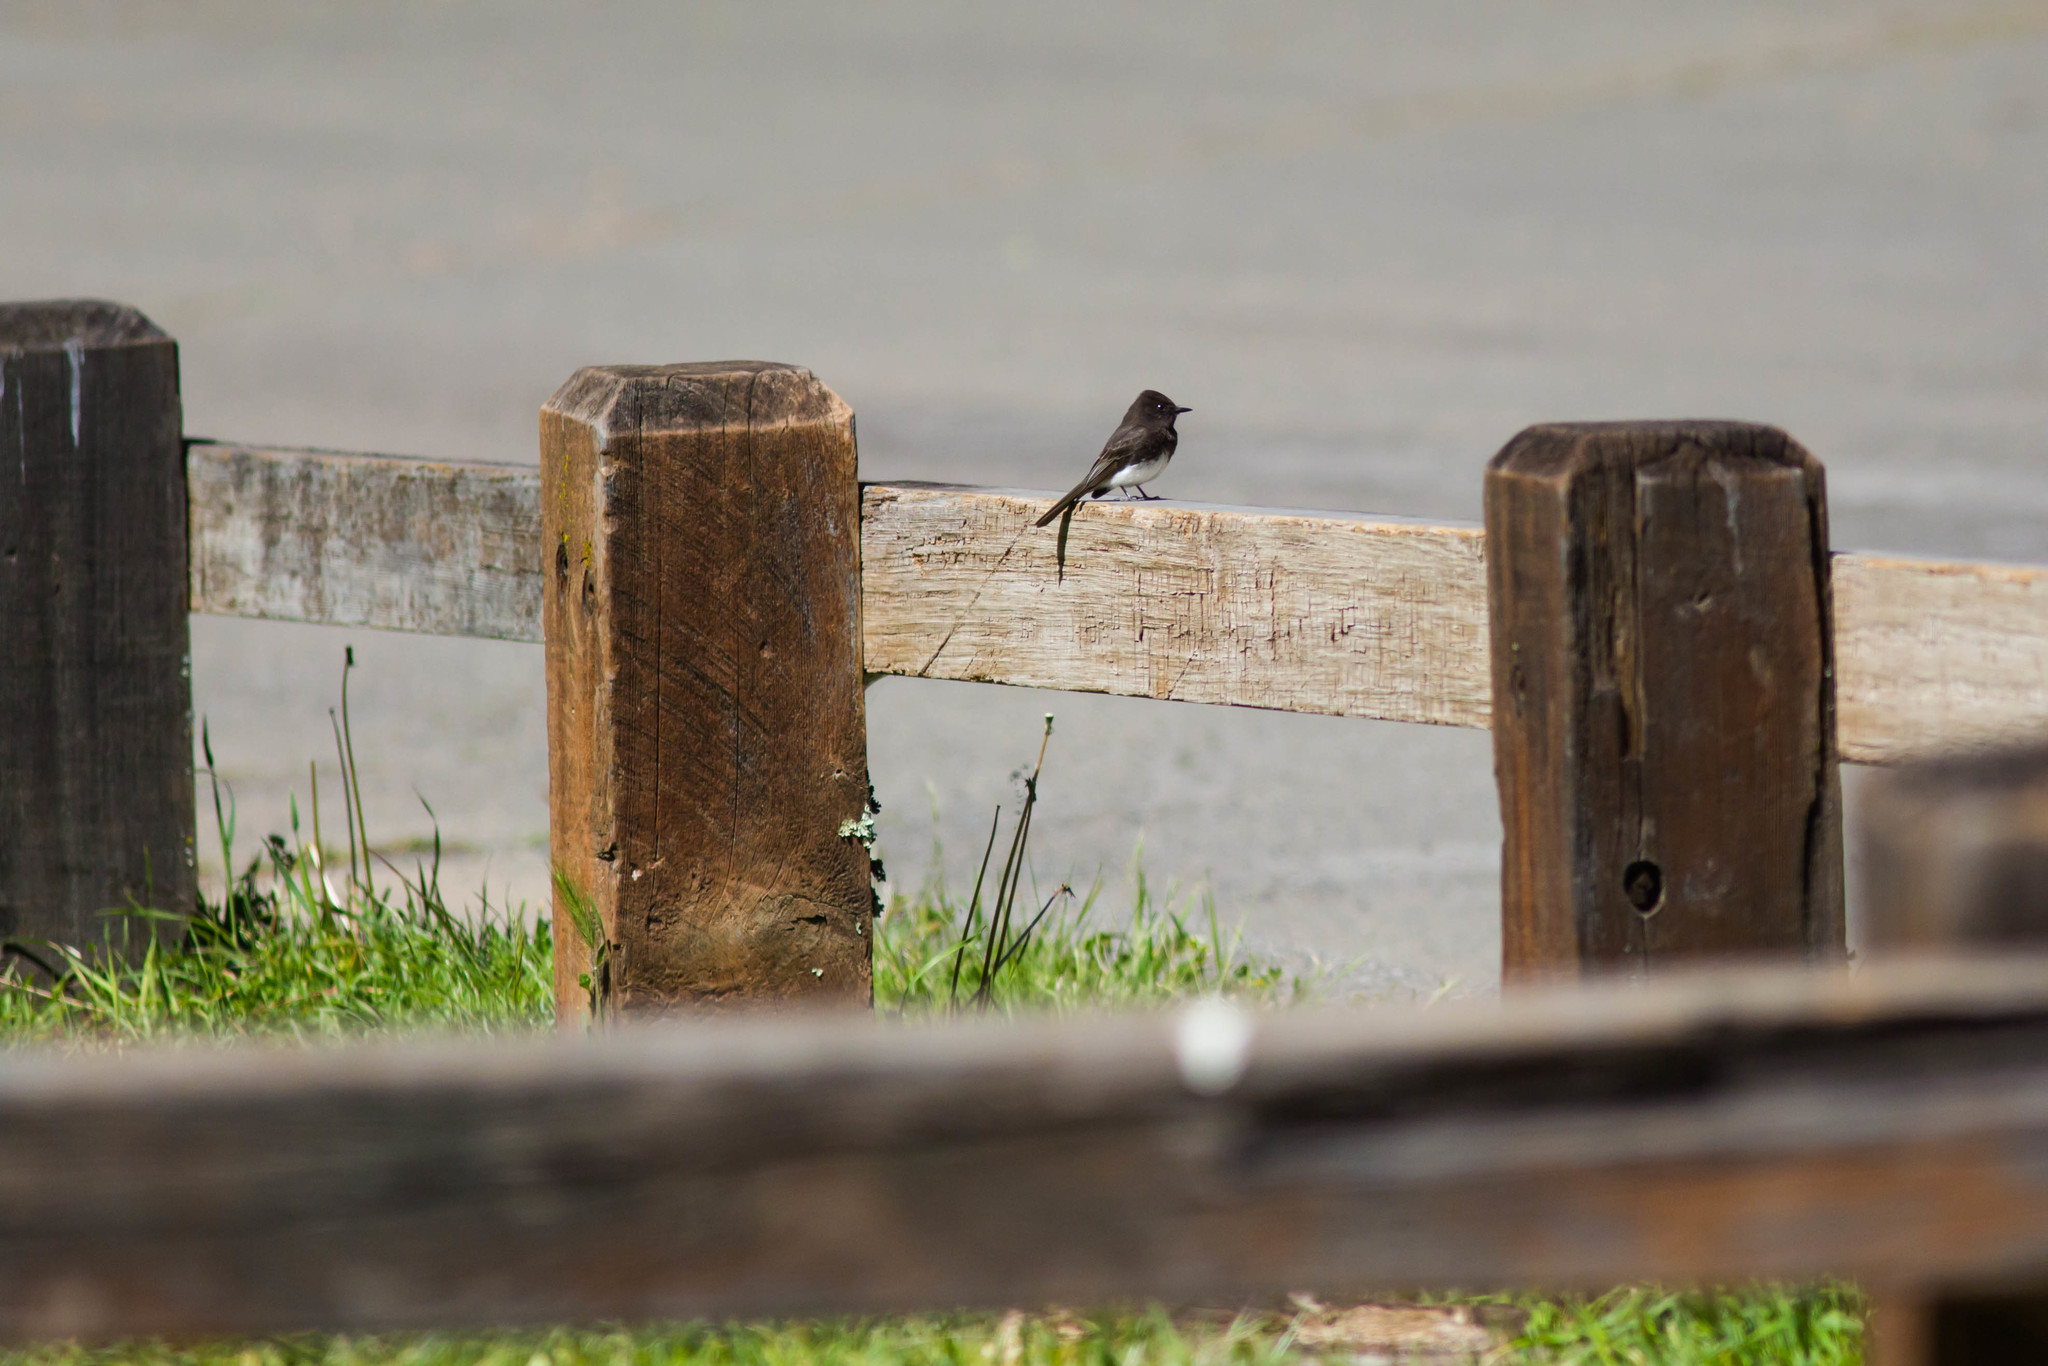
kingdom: Animalia
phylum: Chordata
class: Aves
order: Passeriformes
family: Tyrannidae
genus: Sayornis
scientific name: Sayornis nigricans
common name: Black phoebe
